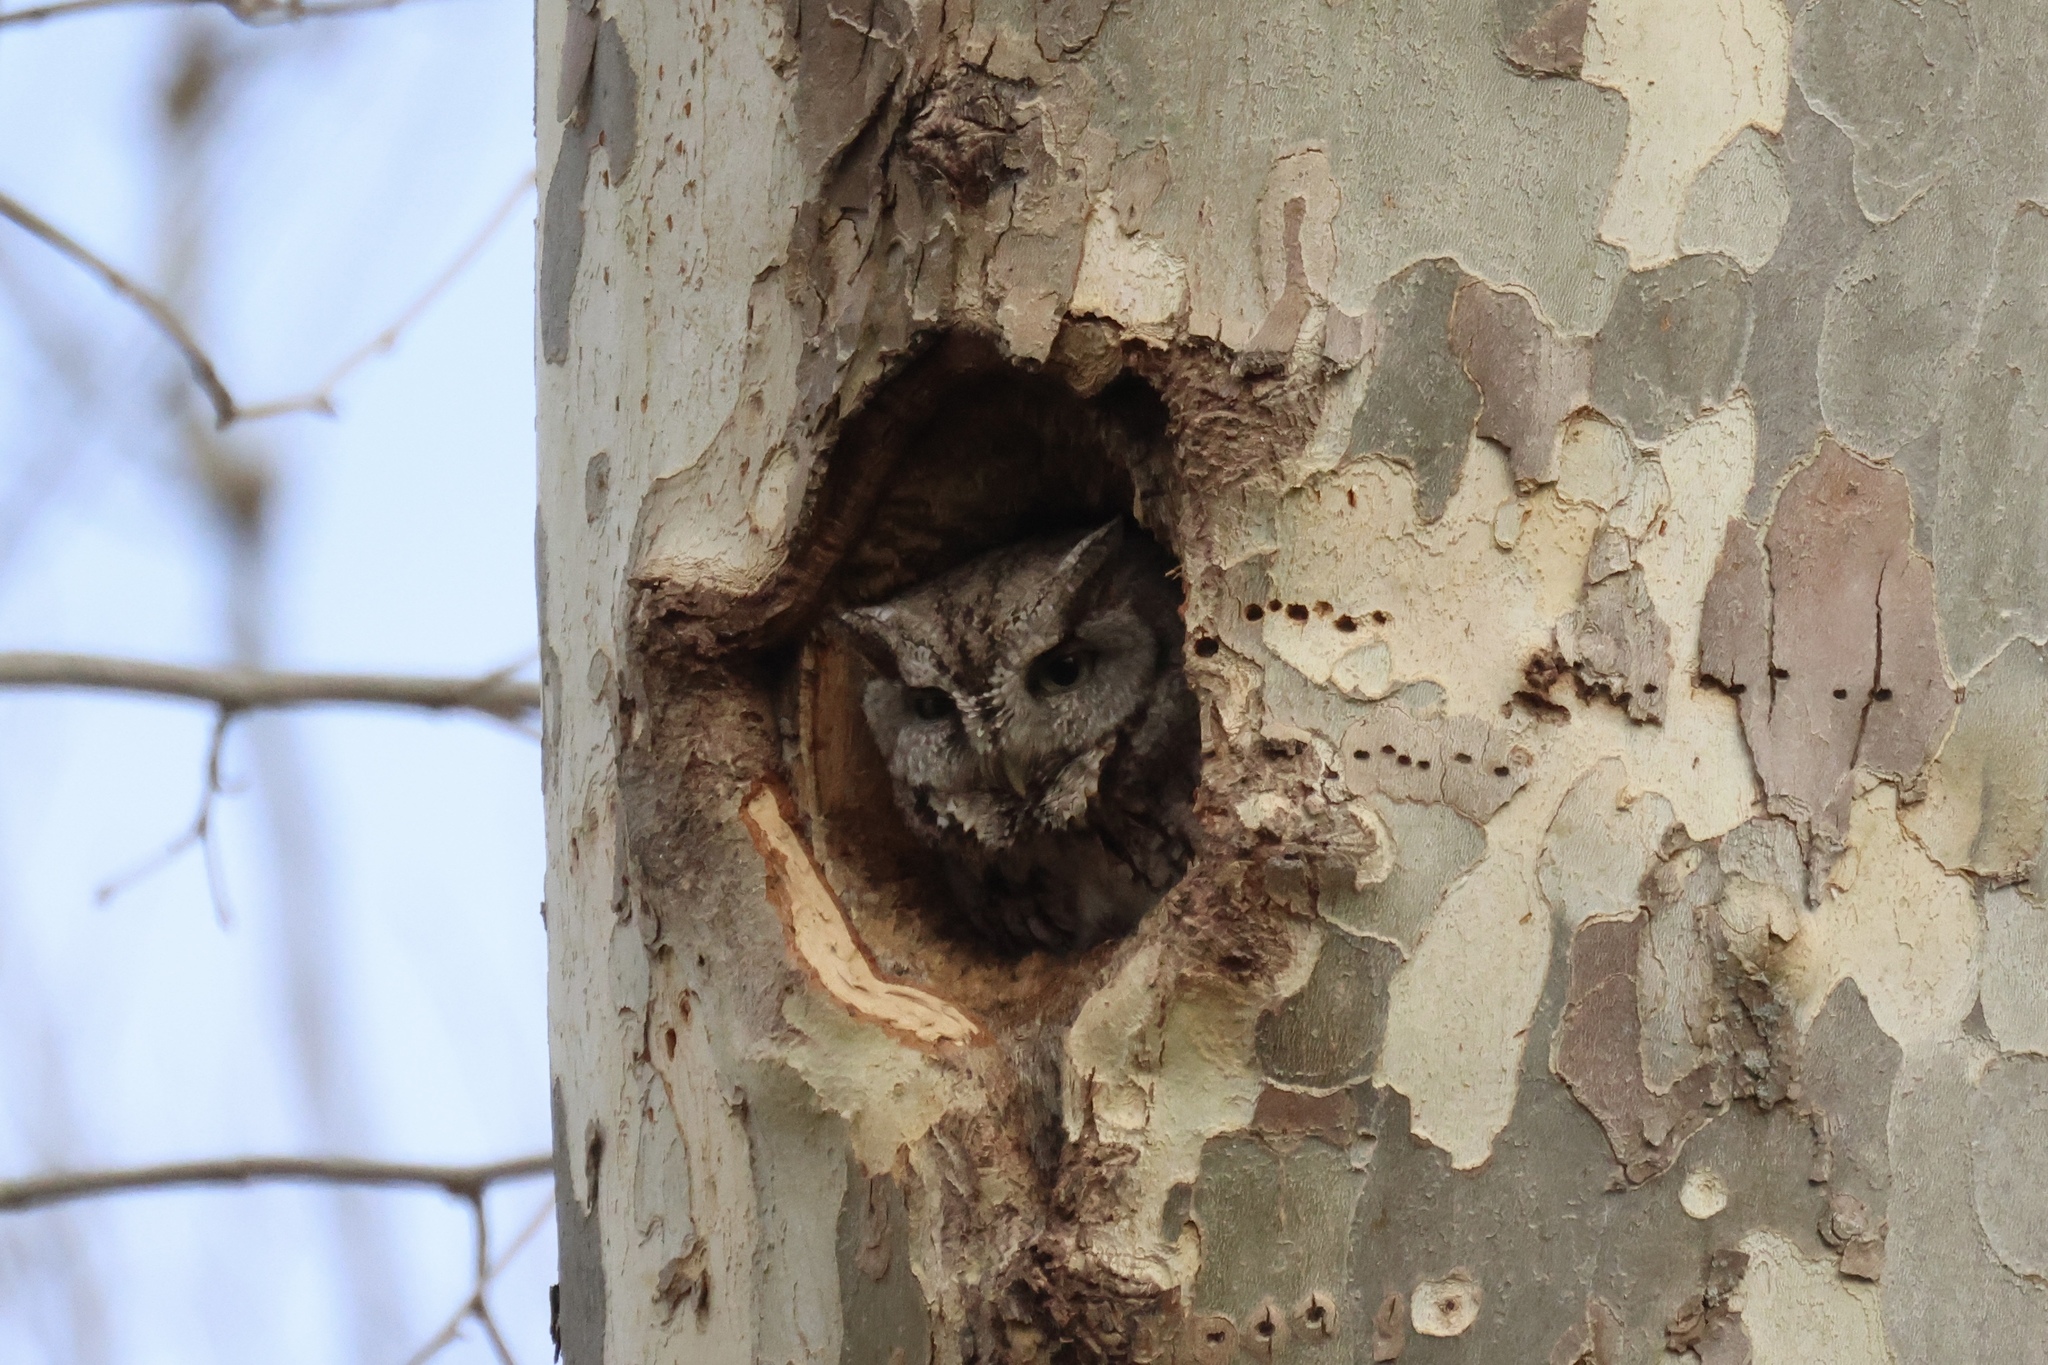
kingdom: Animalia
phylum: Chordata
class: Aves
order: Strigiformes
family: Strigidae
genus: Megascops
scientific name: Megascops asio
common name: Eastern screech-owl
